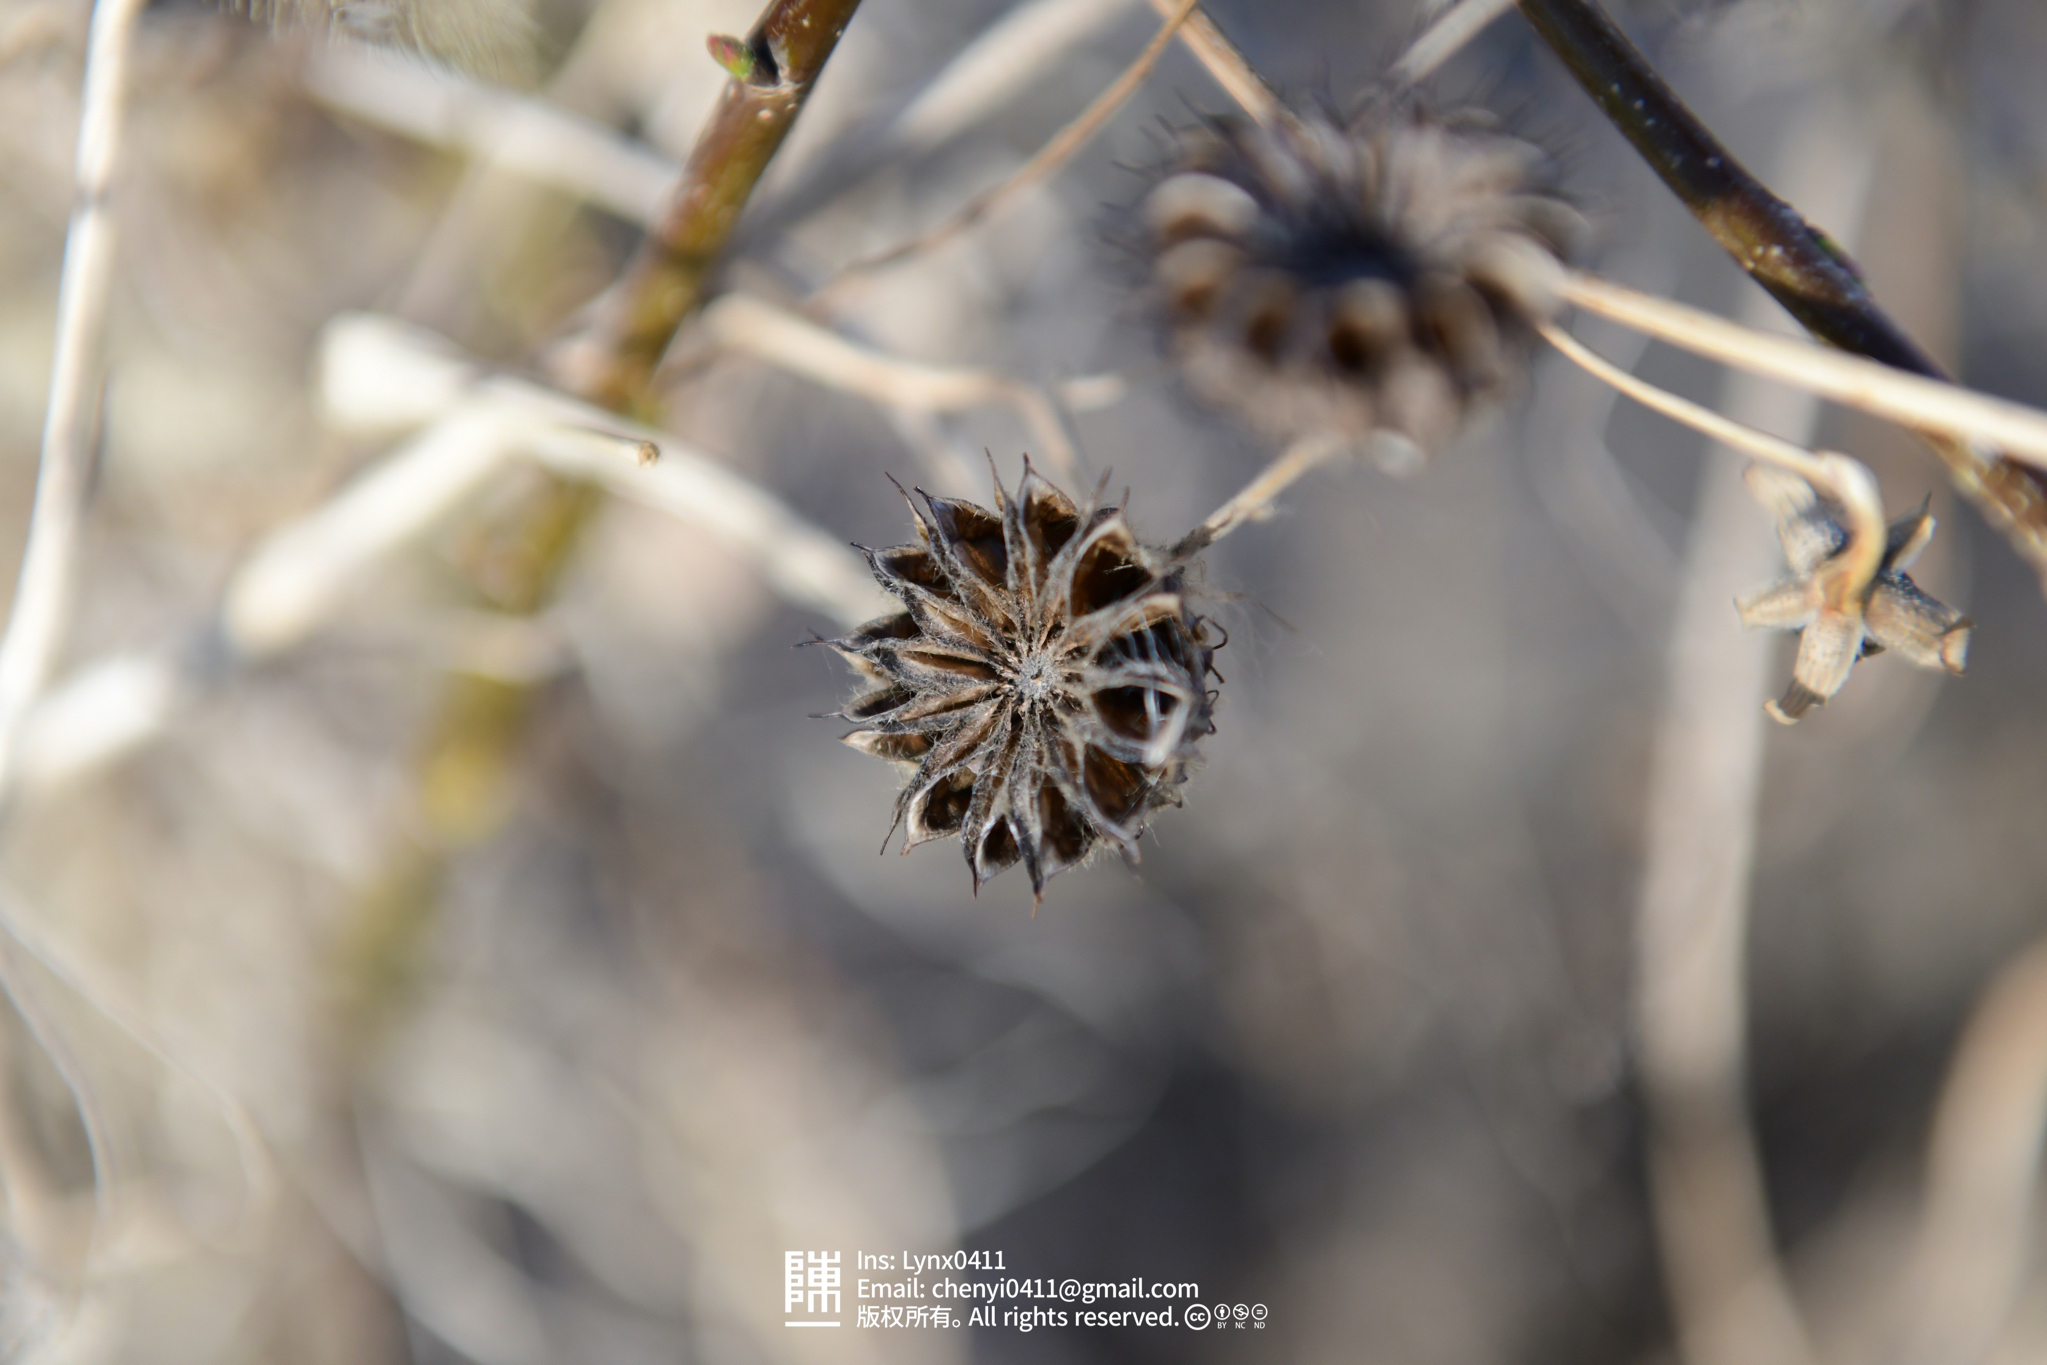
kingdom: Plantae
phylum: Tracheophyta
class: Magnoliopsida
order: Malvales
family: Malvaceae
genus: Abutilon
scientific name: Abutilon theophrasti
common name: Velvetleaf
